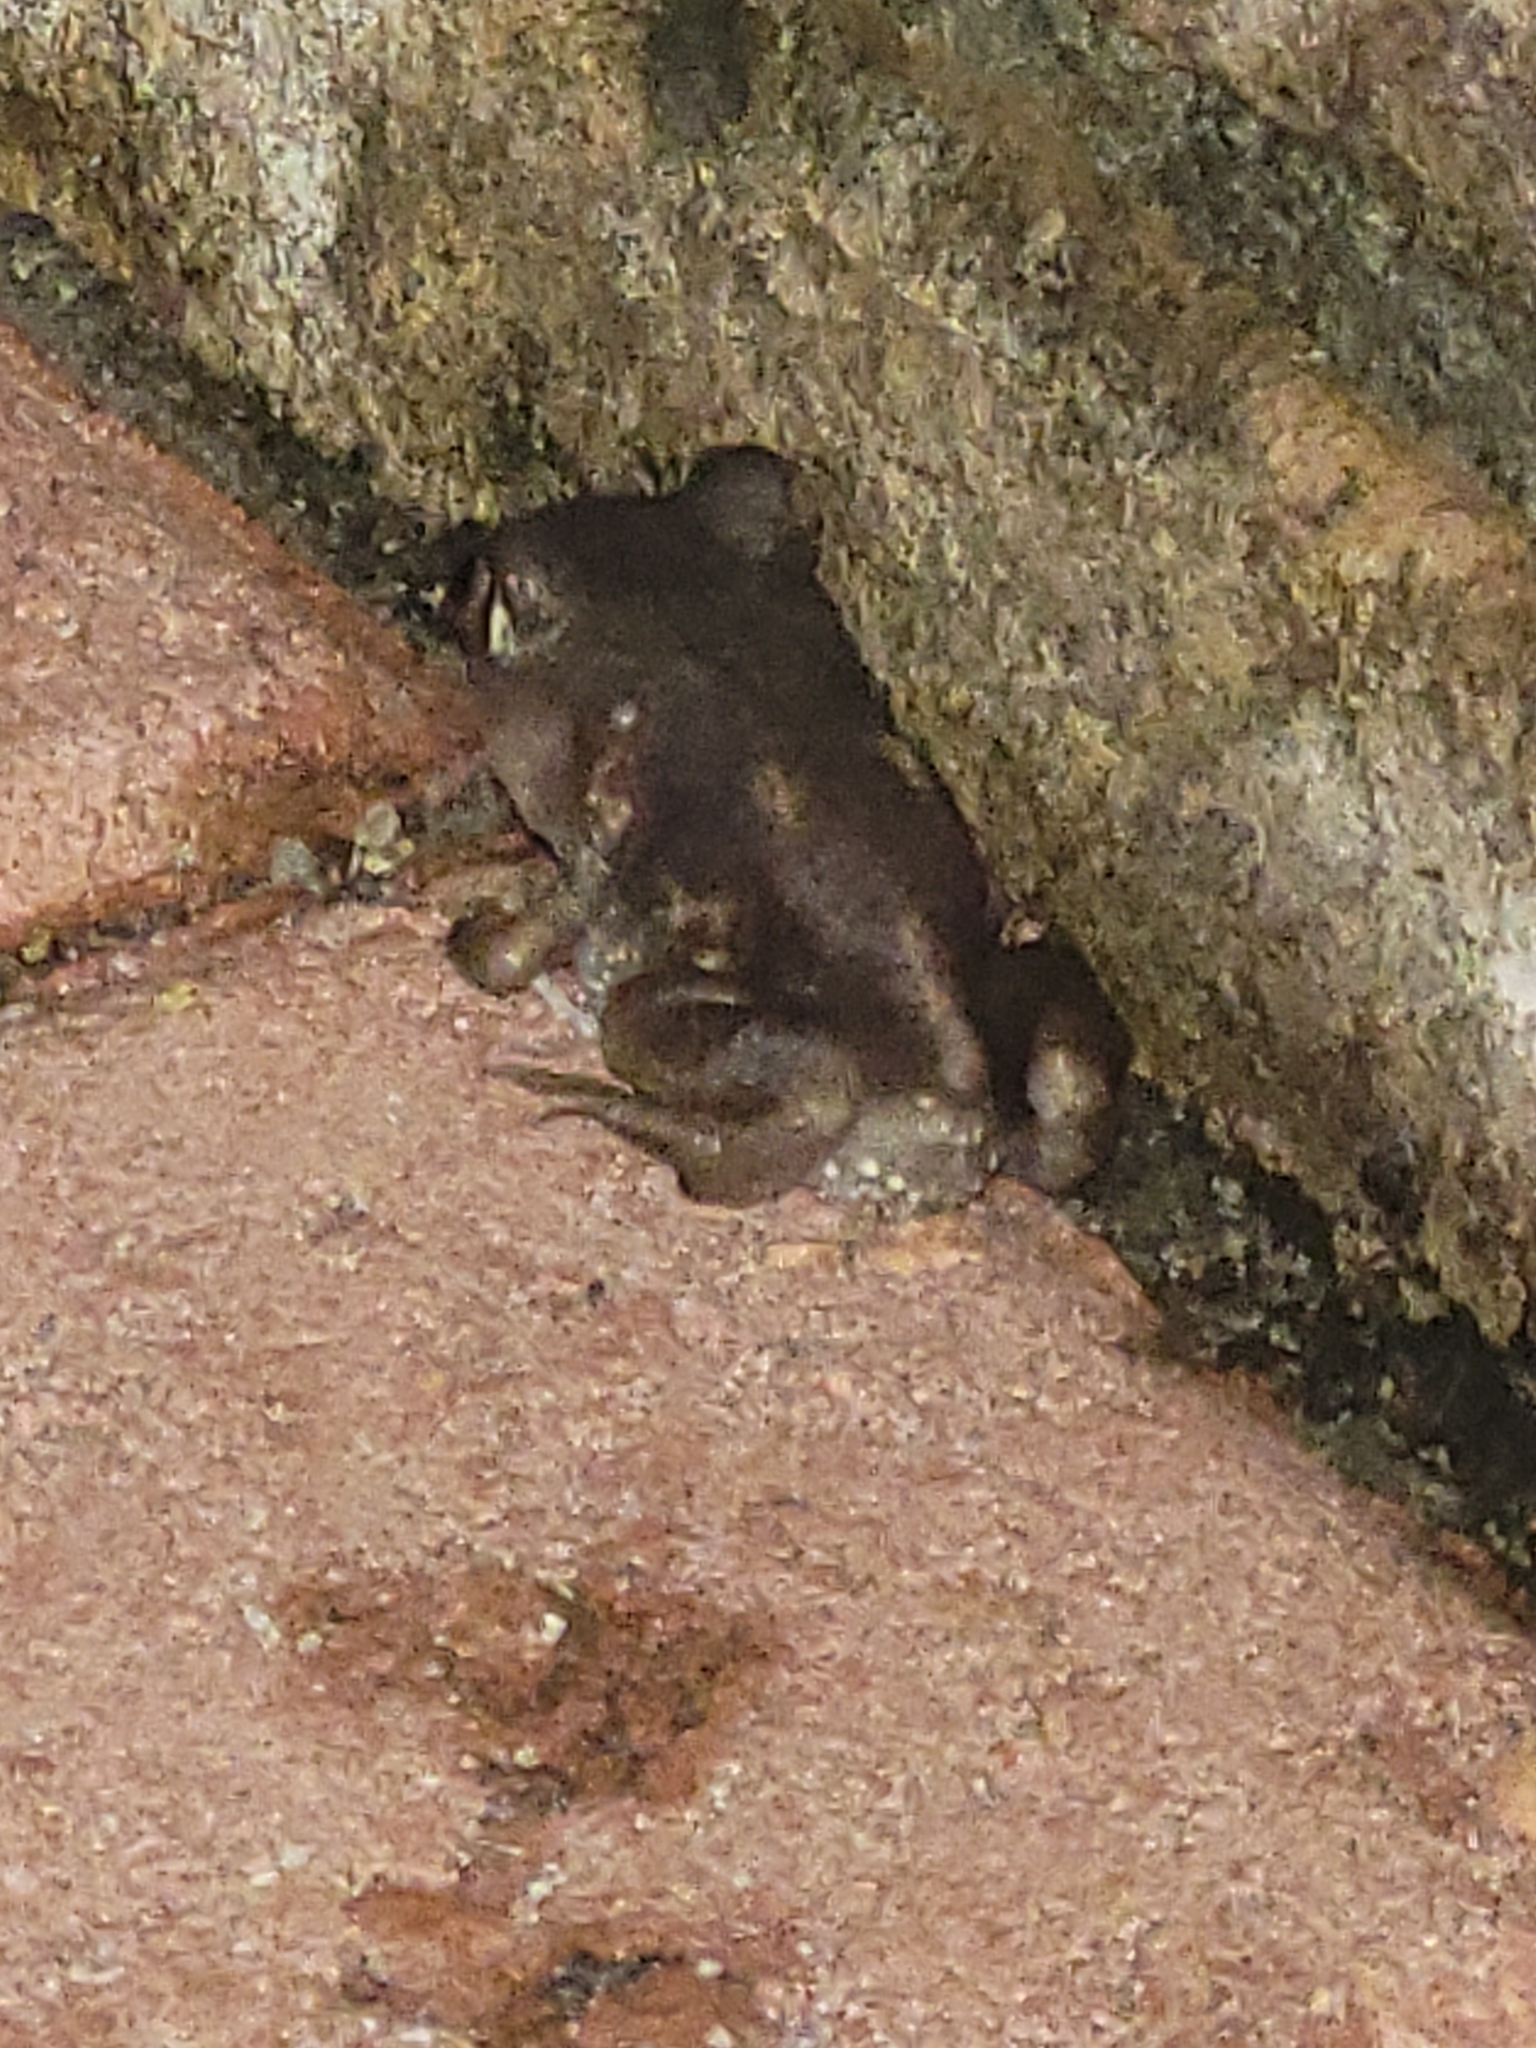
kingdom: Animalia
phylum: Chordata
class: Amphibia
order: Anura
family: Scaphiopodidae
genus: Scaphiopus
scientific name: Scaphiopus holbrookii
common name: Eastern spadefoot toad
